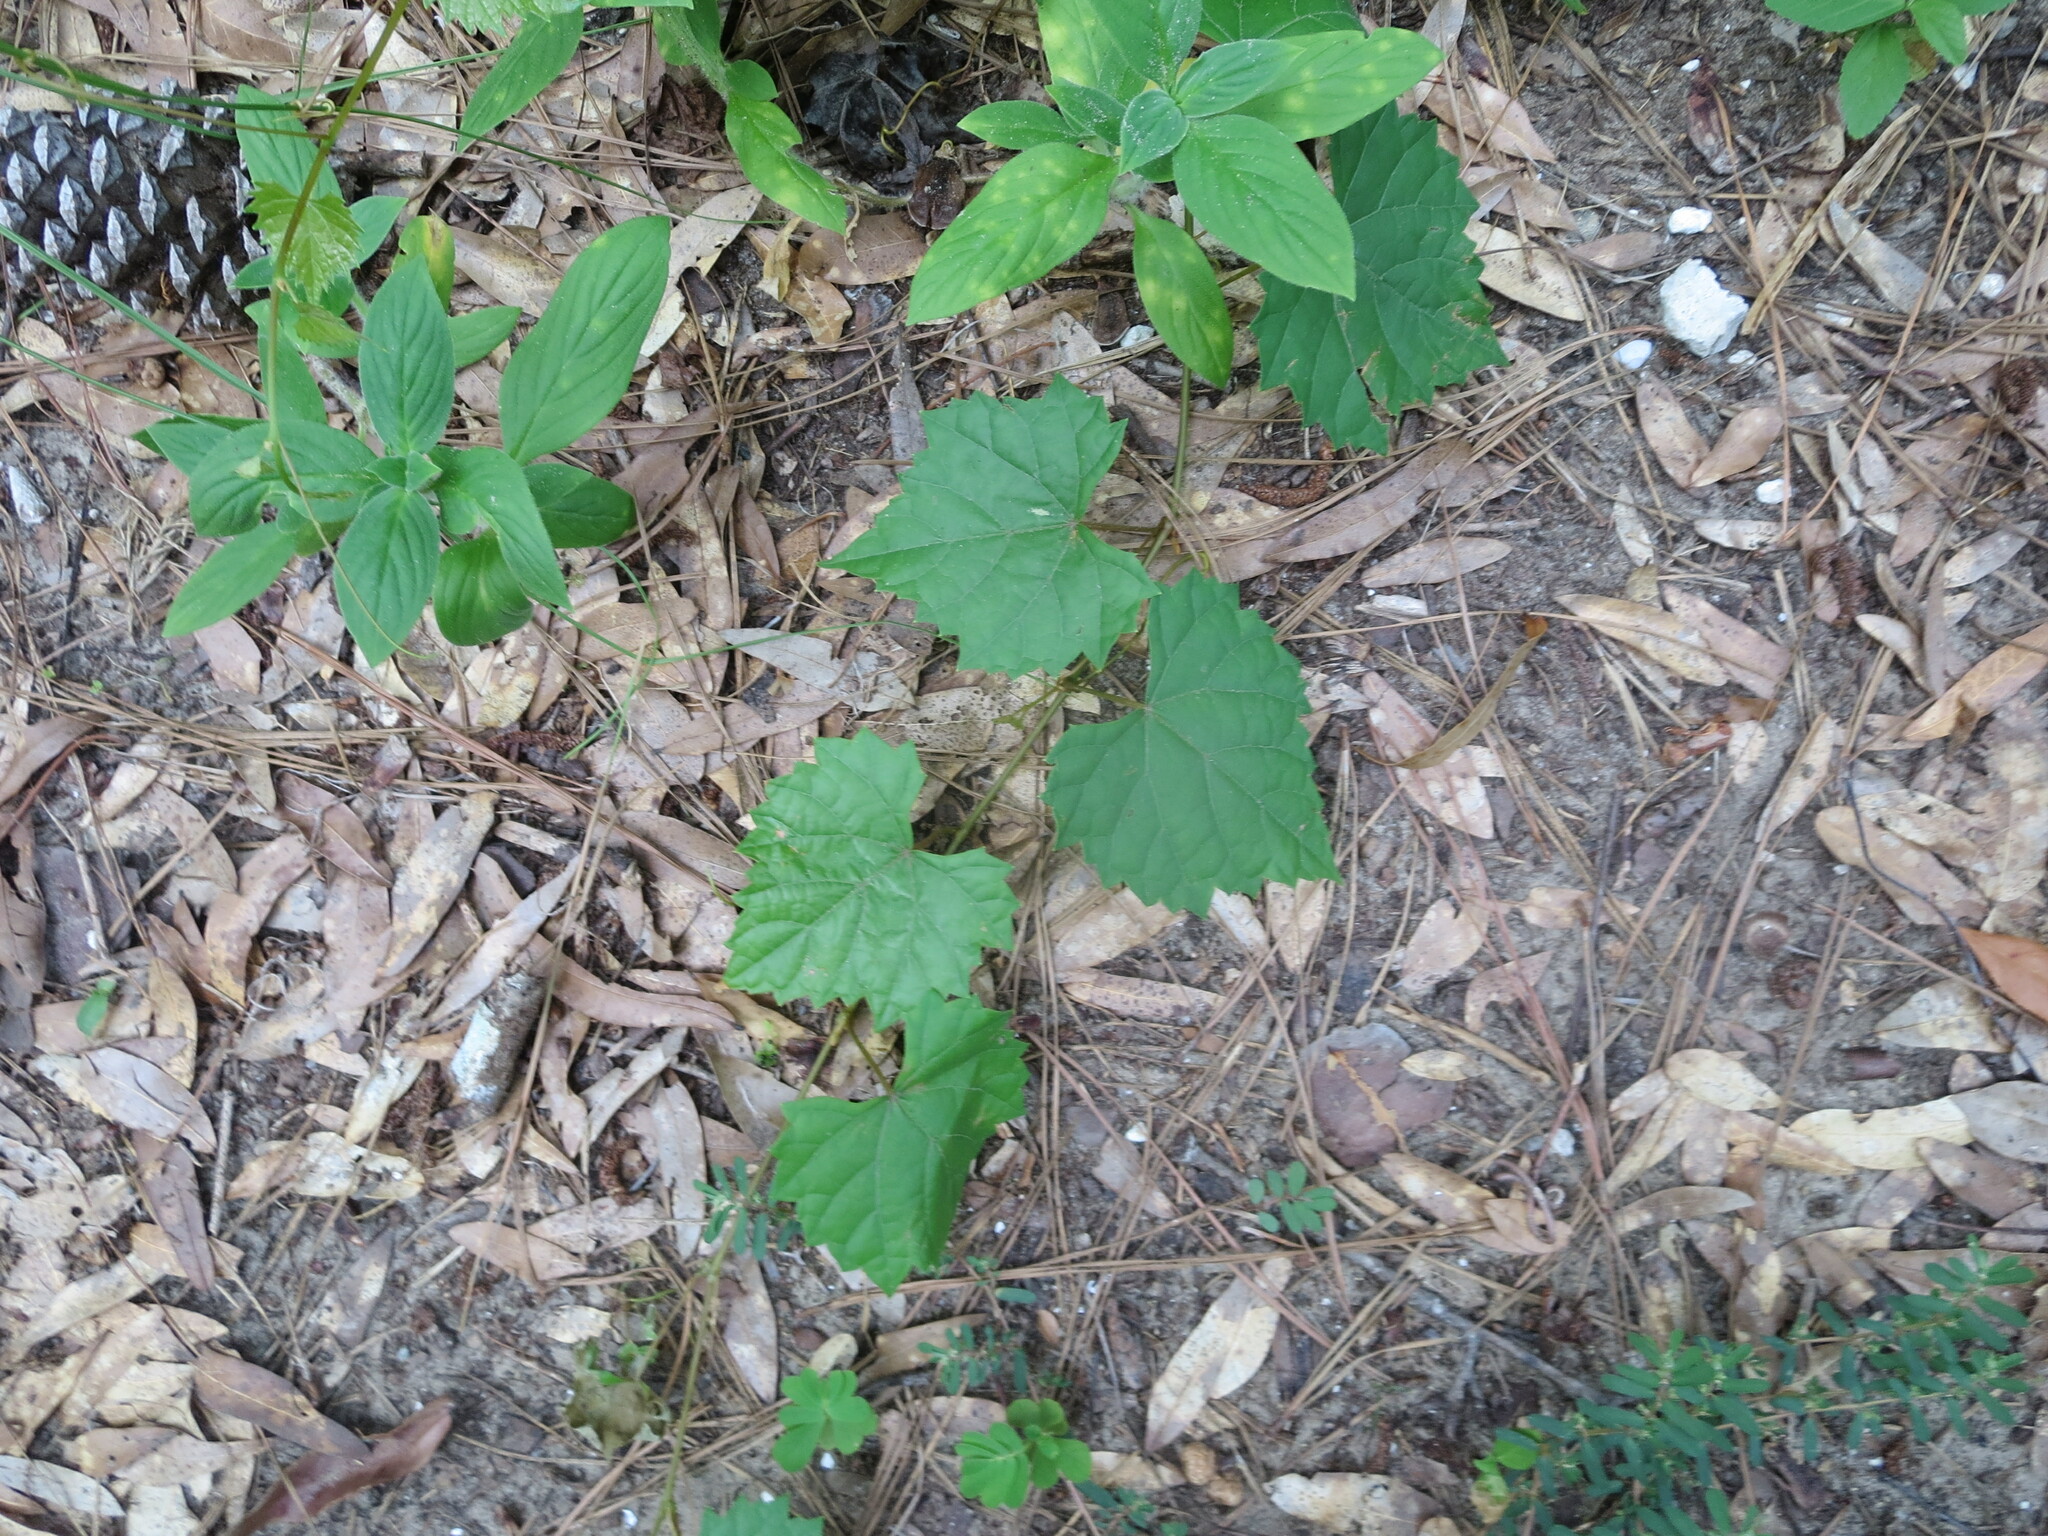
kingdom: Plantae
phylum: Tracheophyta
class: Magnoliopsida
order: Vitales
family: Vitaceae
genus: Vitis
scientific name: Vitis rotundifolia
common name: Muscadine grape
